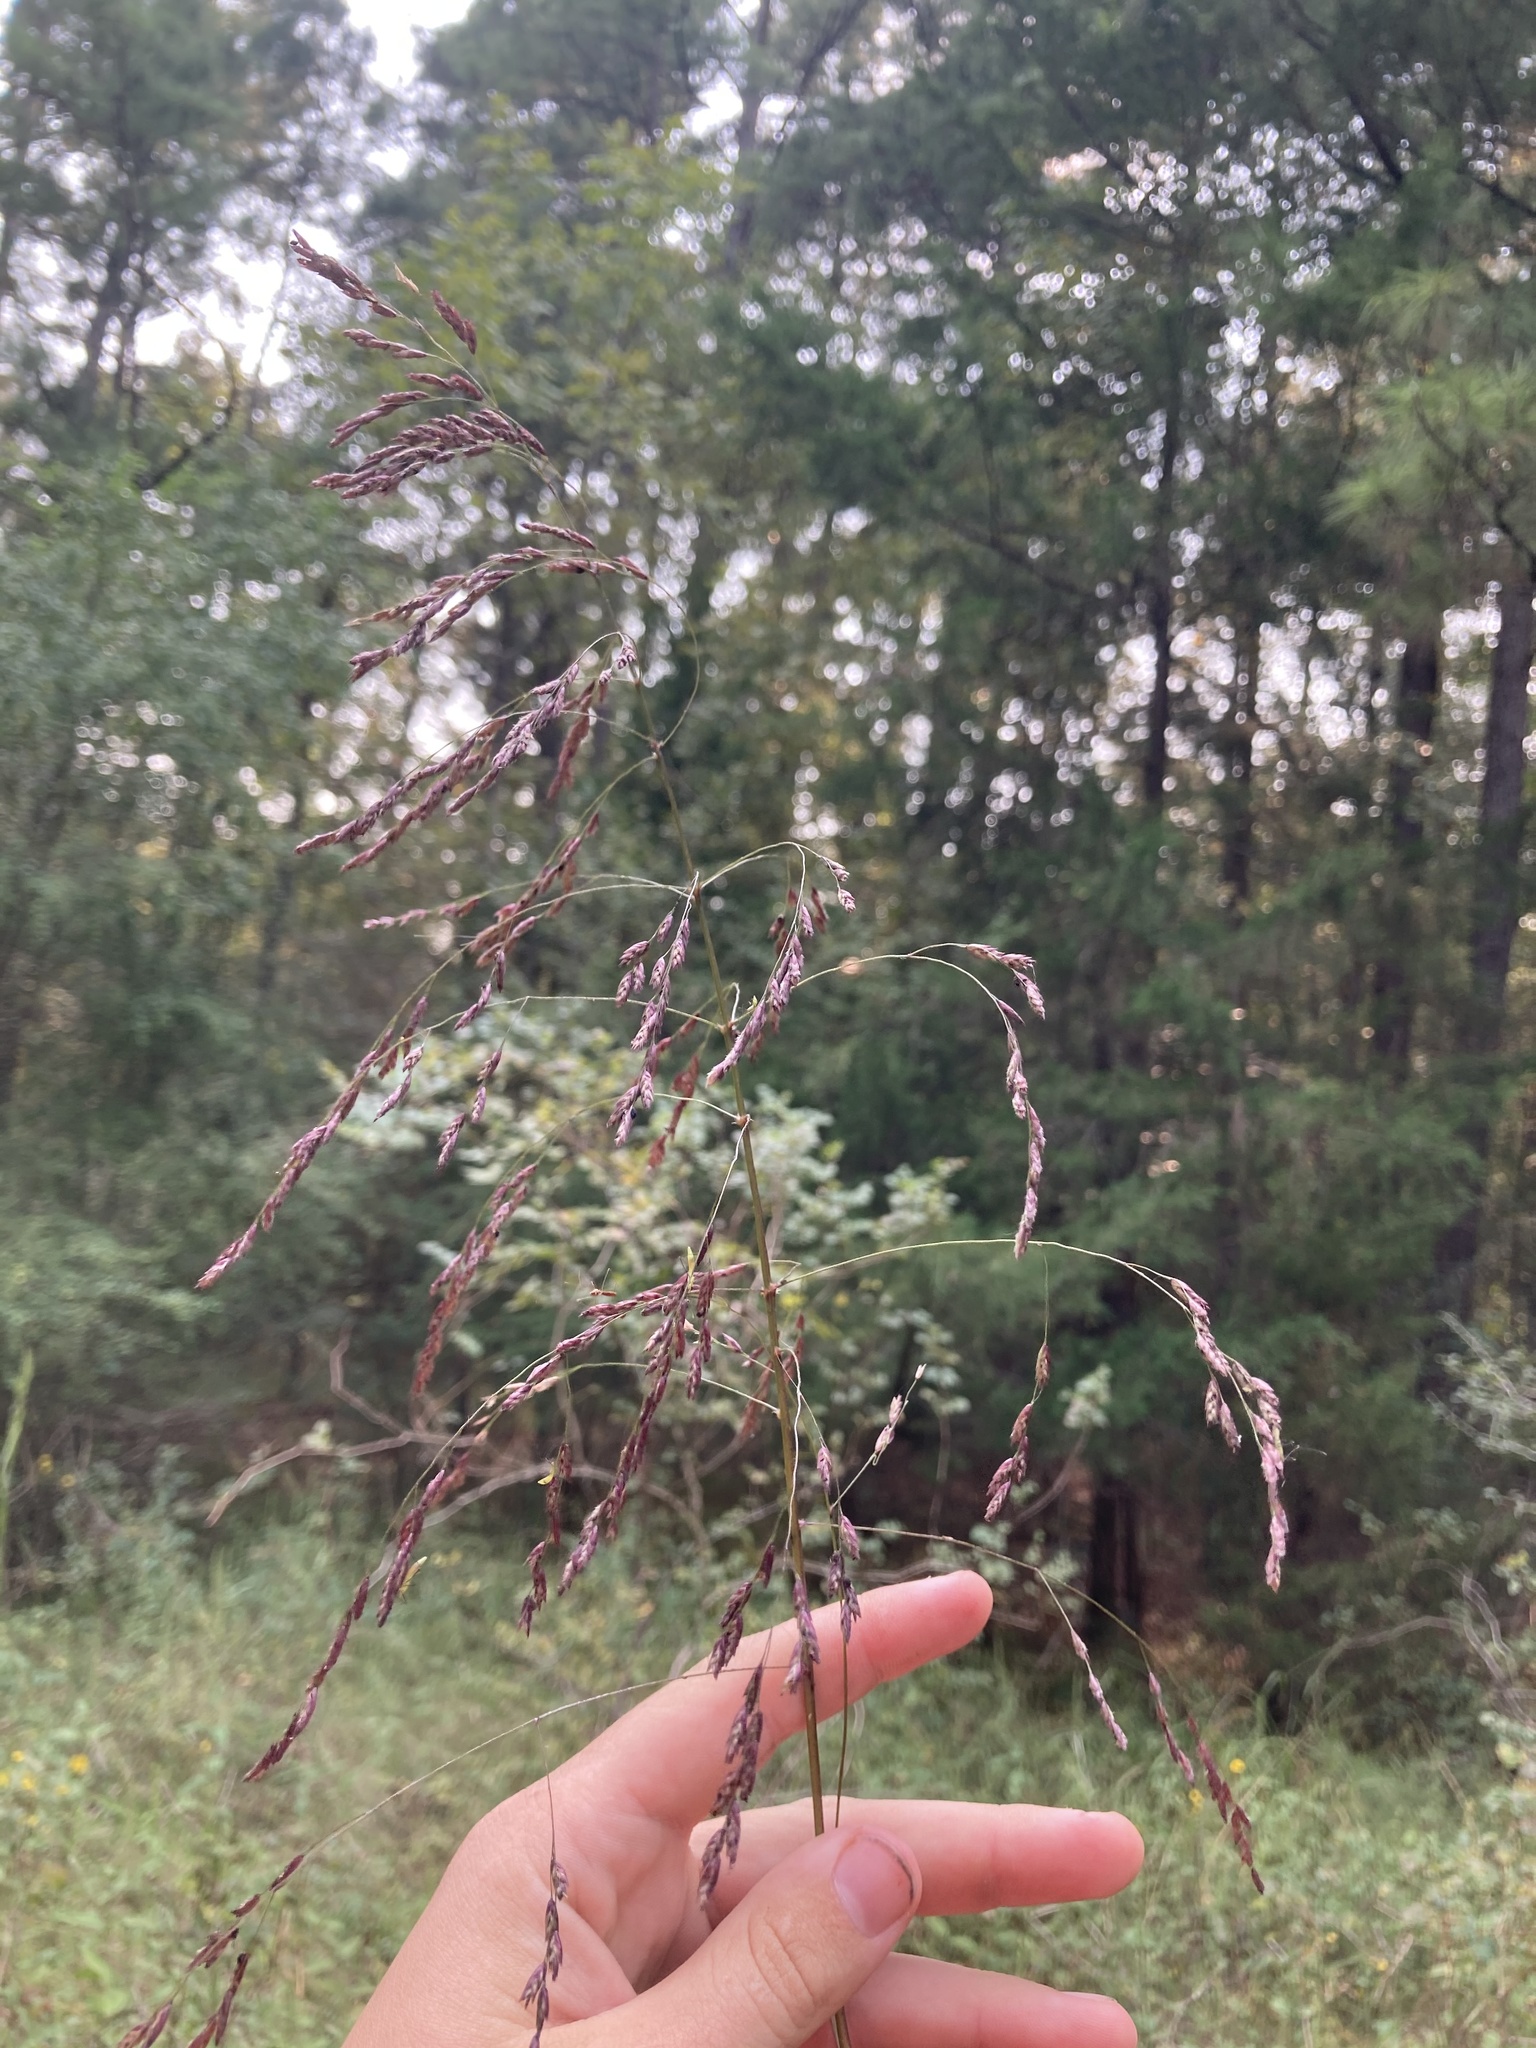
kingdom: Plantae
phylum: Tracheophyta
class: Liliopsida
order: Poales
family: Poaceae
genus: Tridens
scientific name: Tridens flavus
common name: Purpletop
